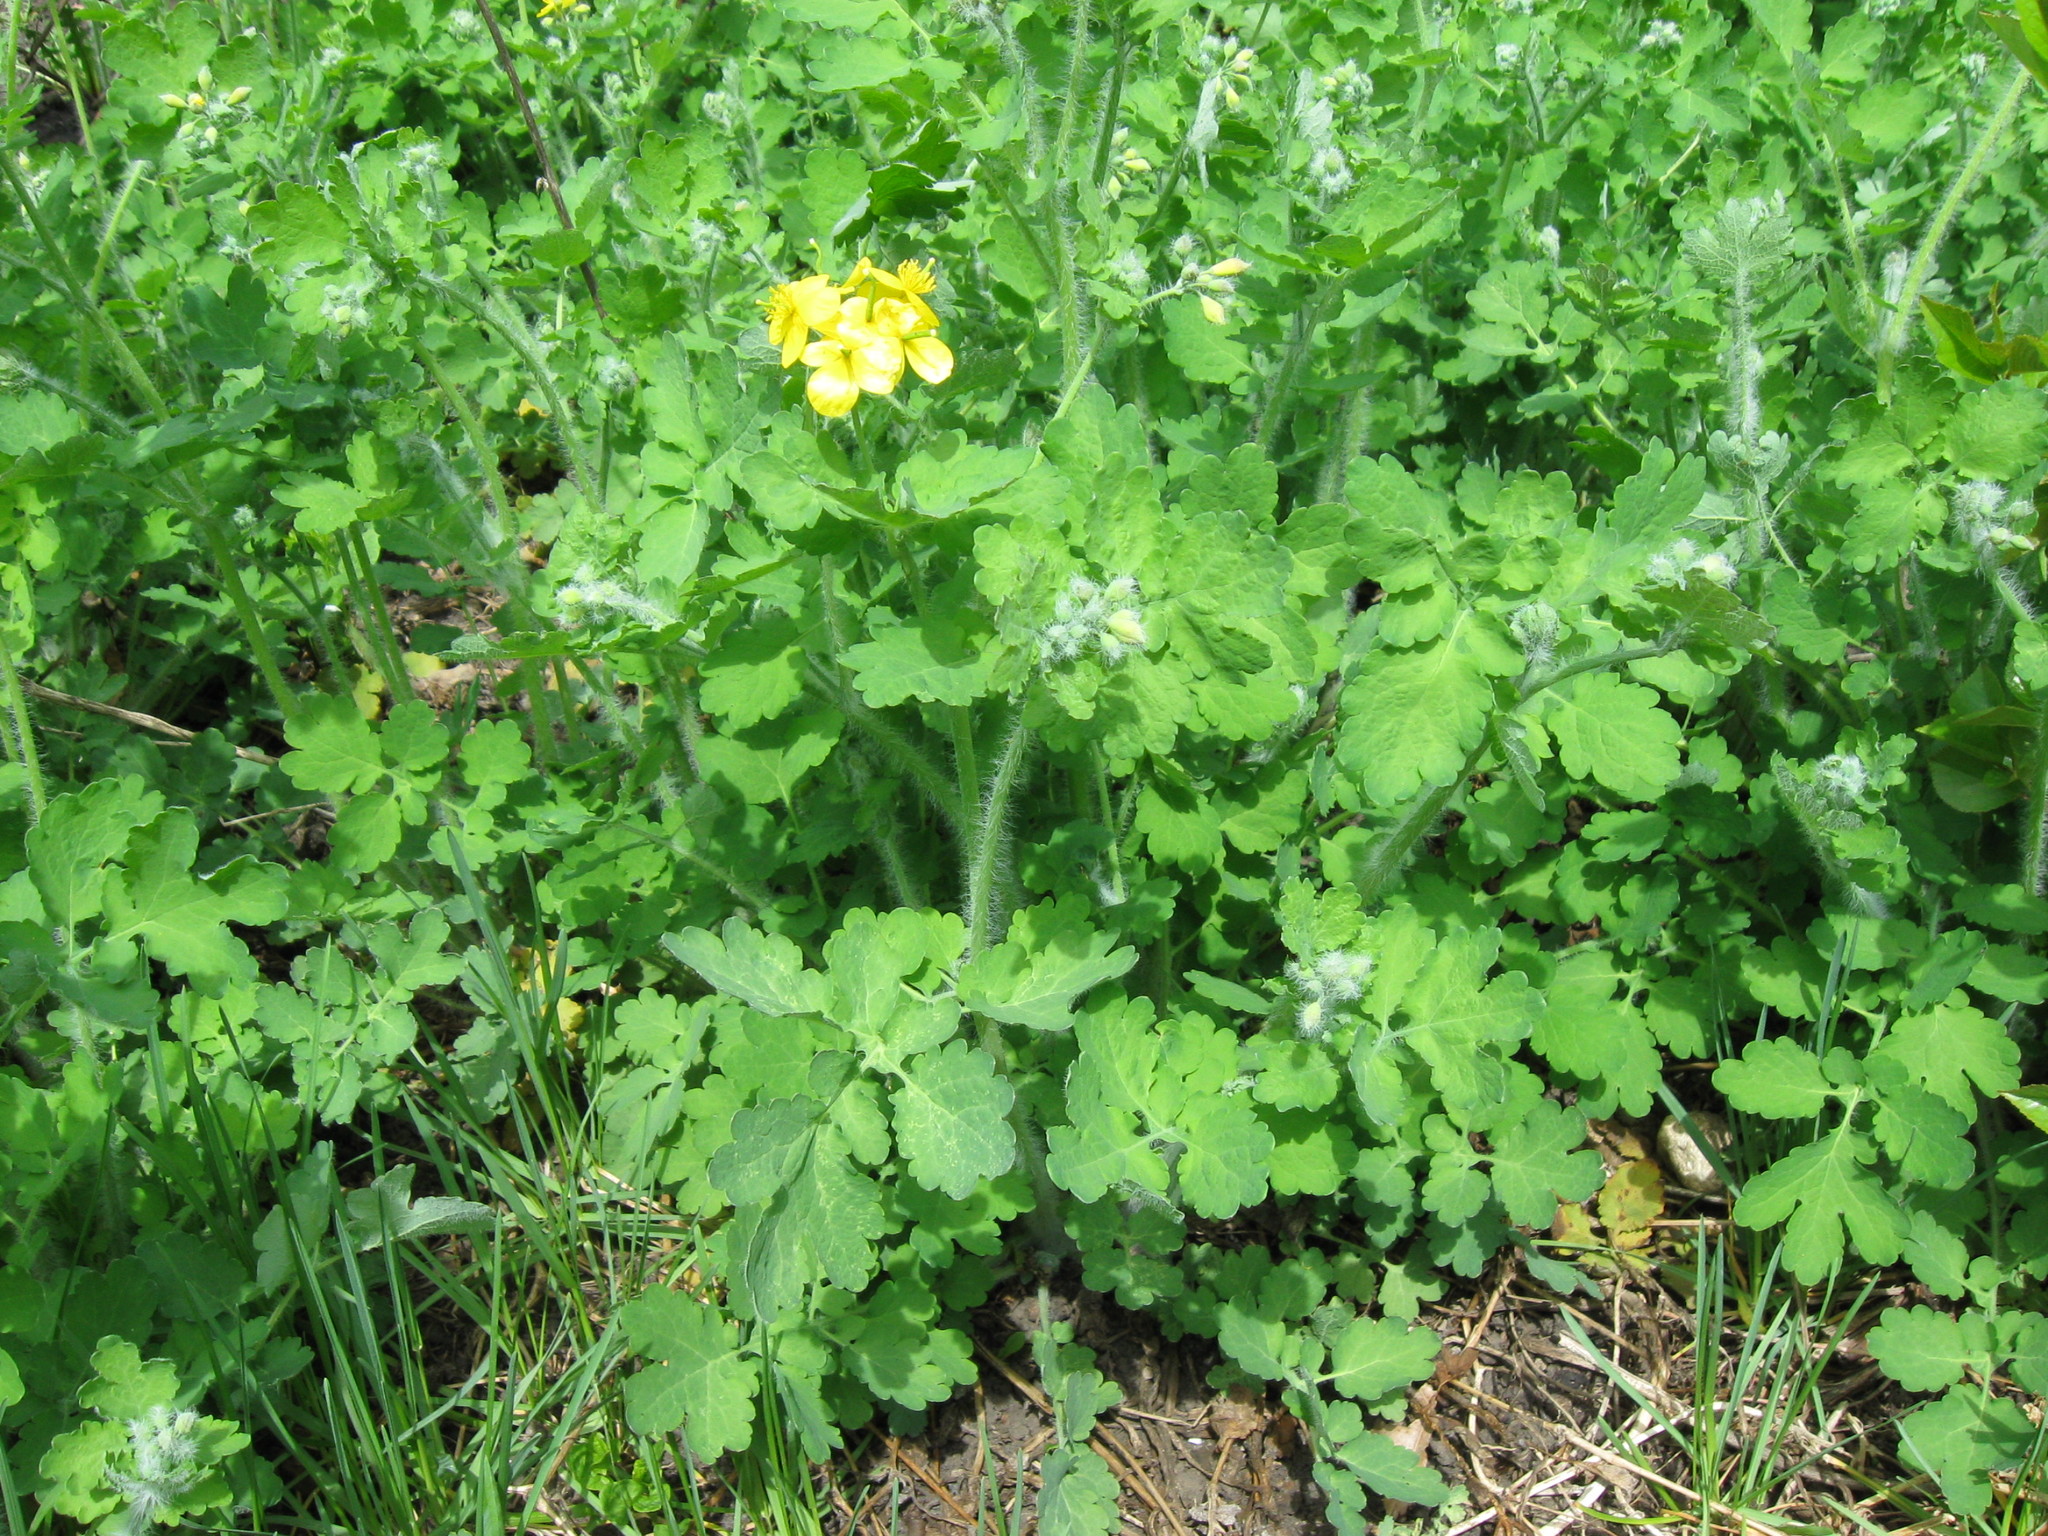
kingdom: Plantae
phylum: Tracheophyta
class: Magnoliopsida
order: Ranunculales
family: Papaveraceae
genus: Chelidonium
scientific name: Chelidonium majus
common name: Greater celandine
